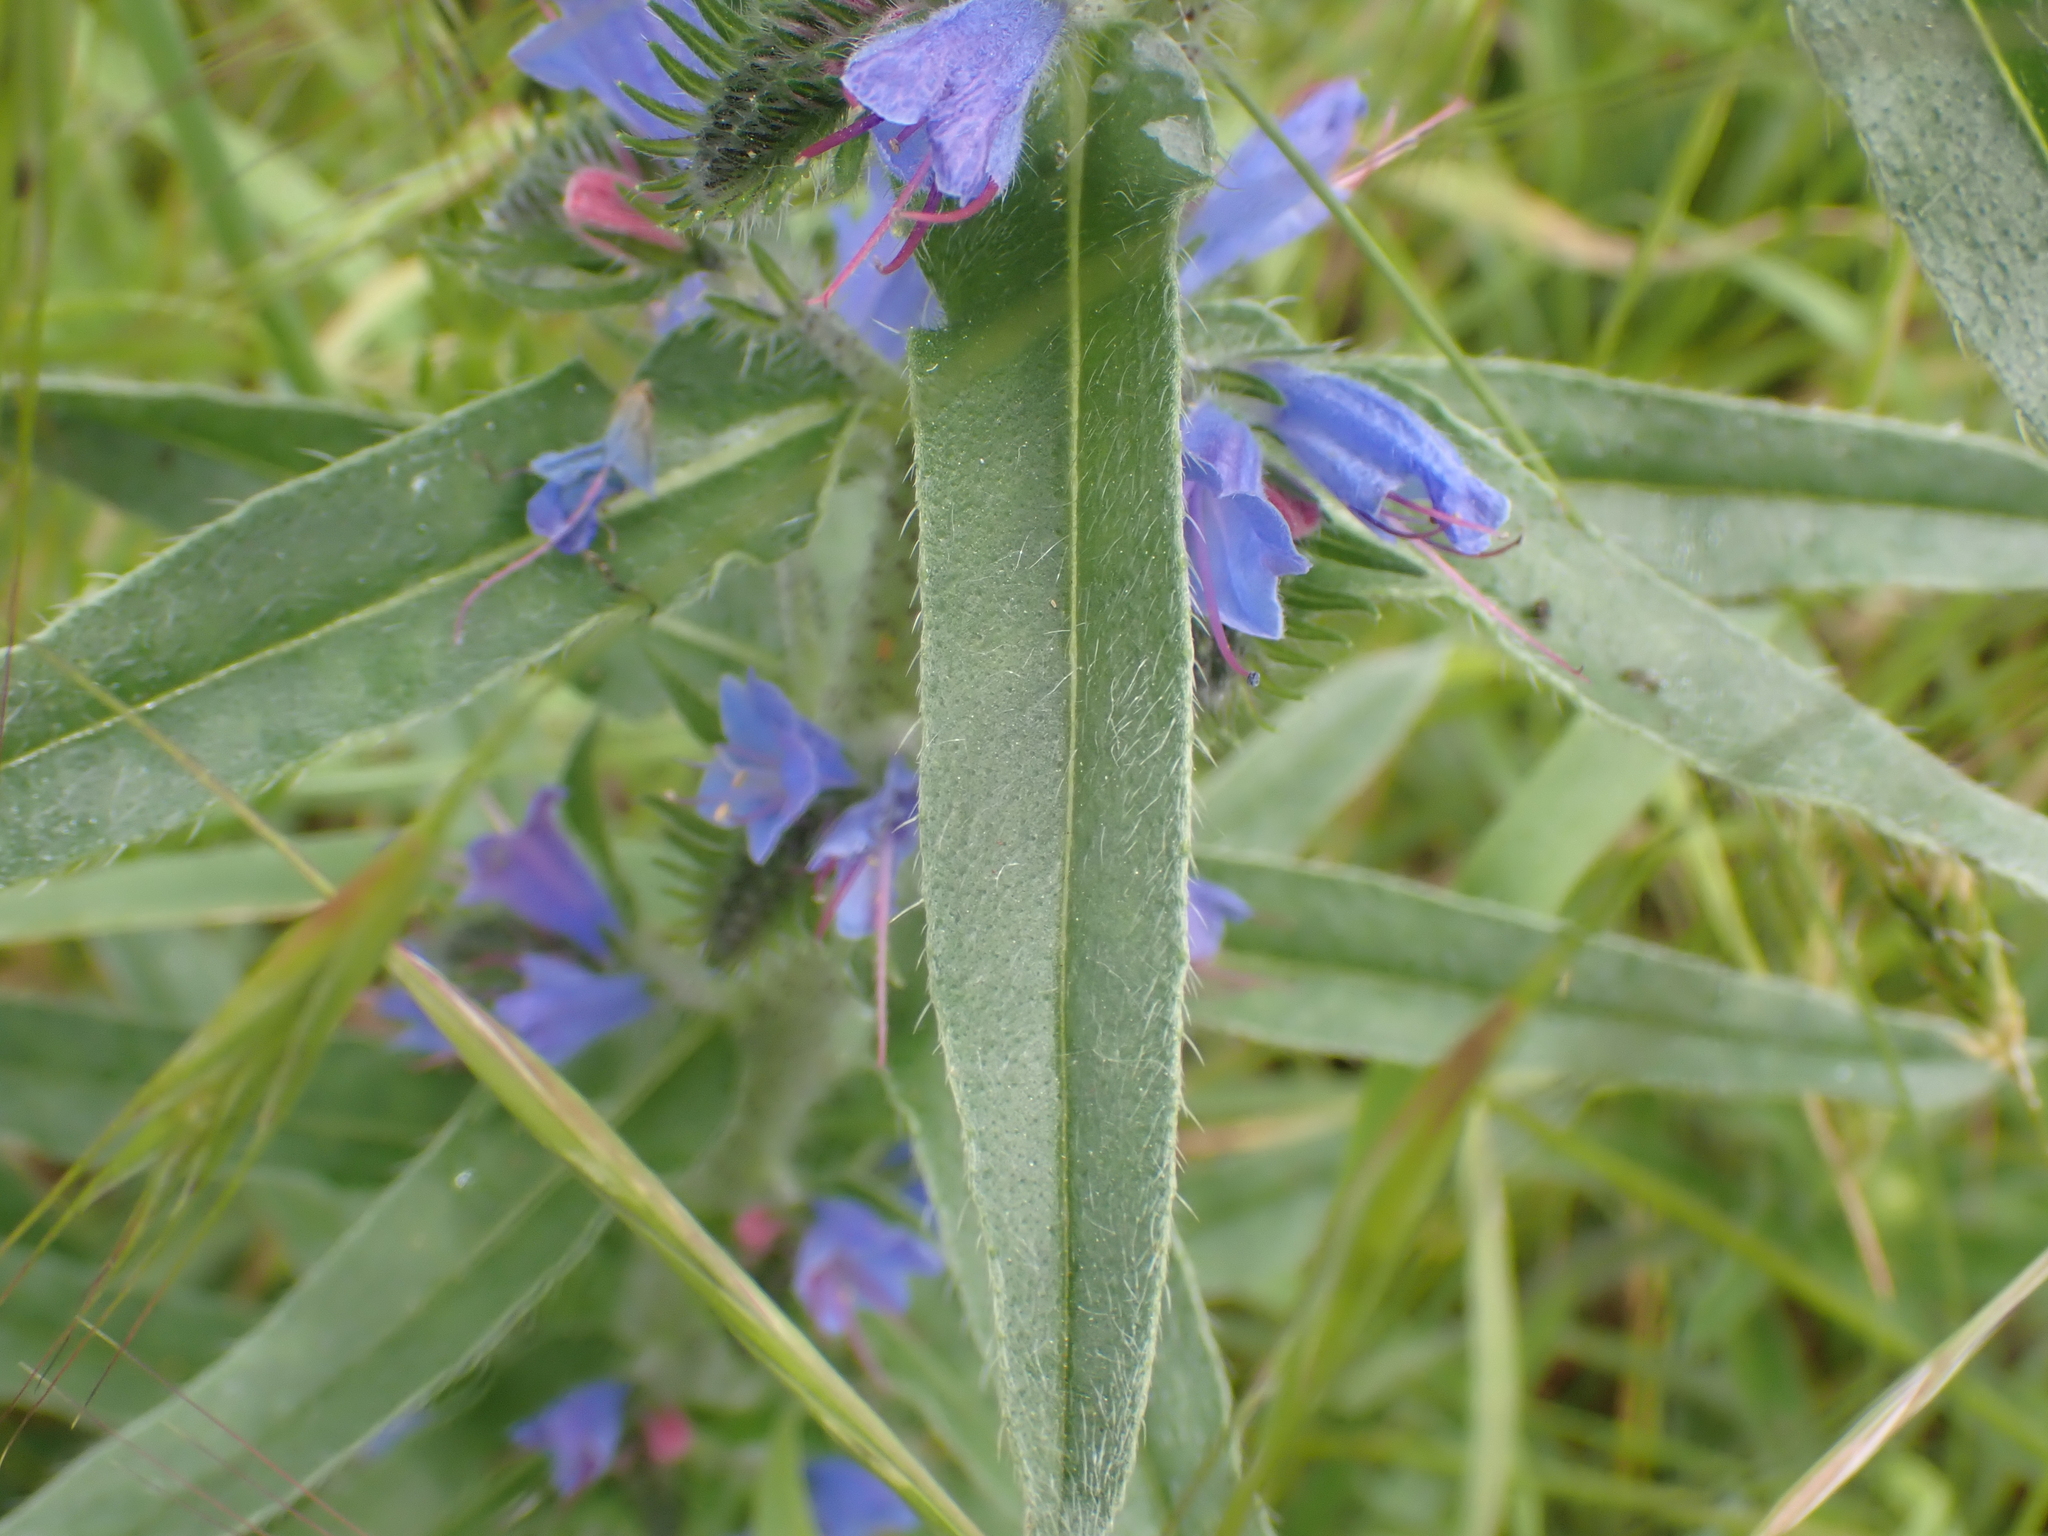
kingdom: Plantae
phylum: Tracheophyta
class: Magnoliopsida
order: Boraginales
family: Boraginaceae
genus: Echium
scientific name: Echium vulgare
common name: Common viper's bugloss
